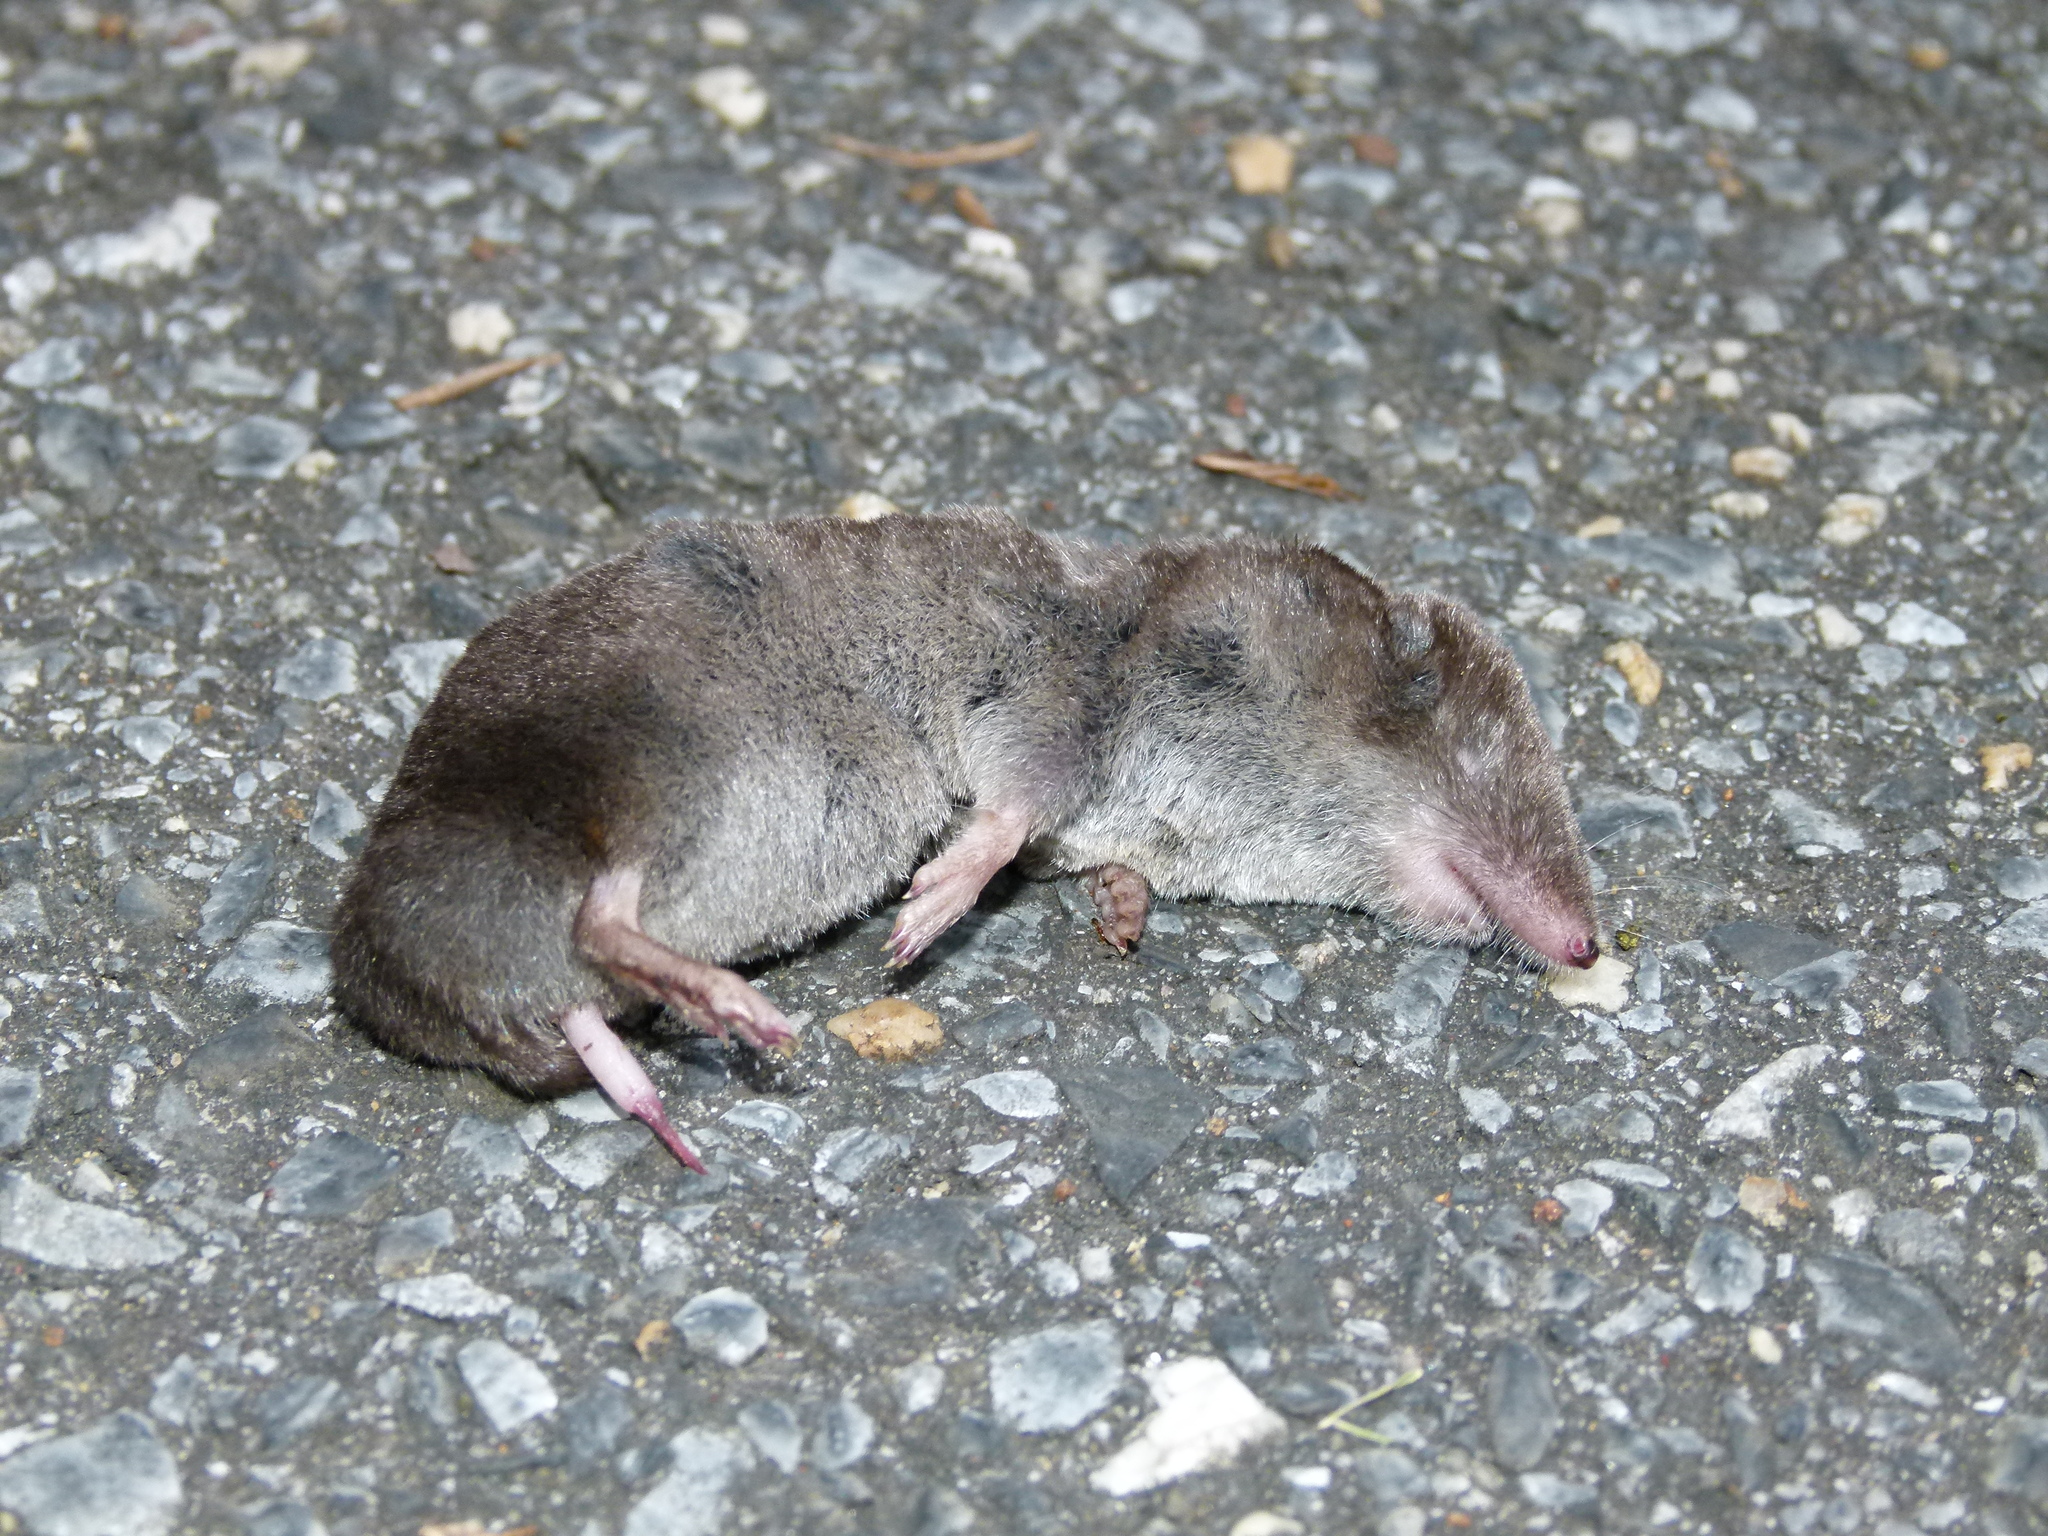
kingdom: Animalia
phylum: Chordata
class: Mammalia
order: Soricomorpha
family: Soricidae
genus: Blarina
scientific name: Blarina brevicauda
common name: Northern short-tailed shrew
